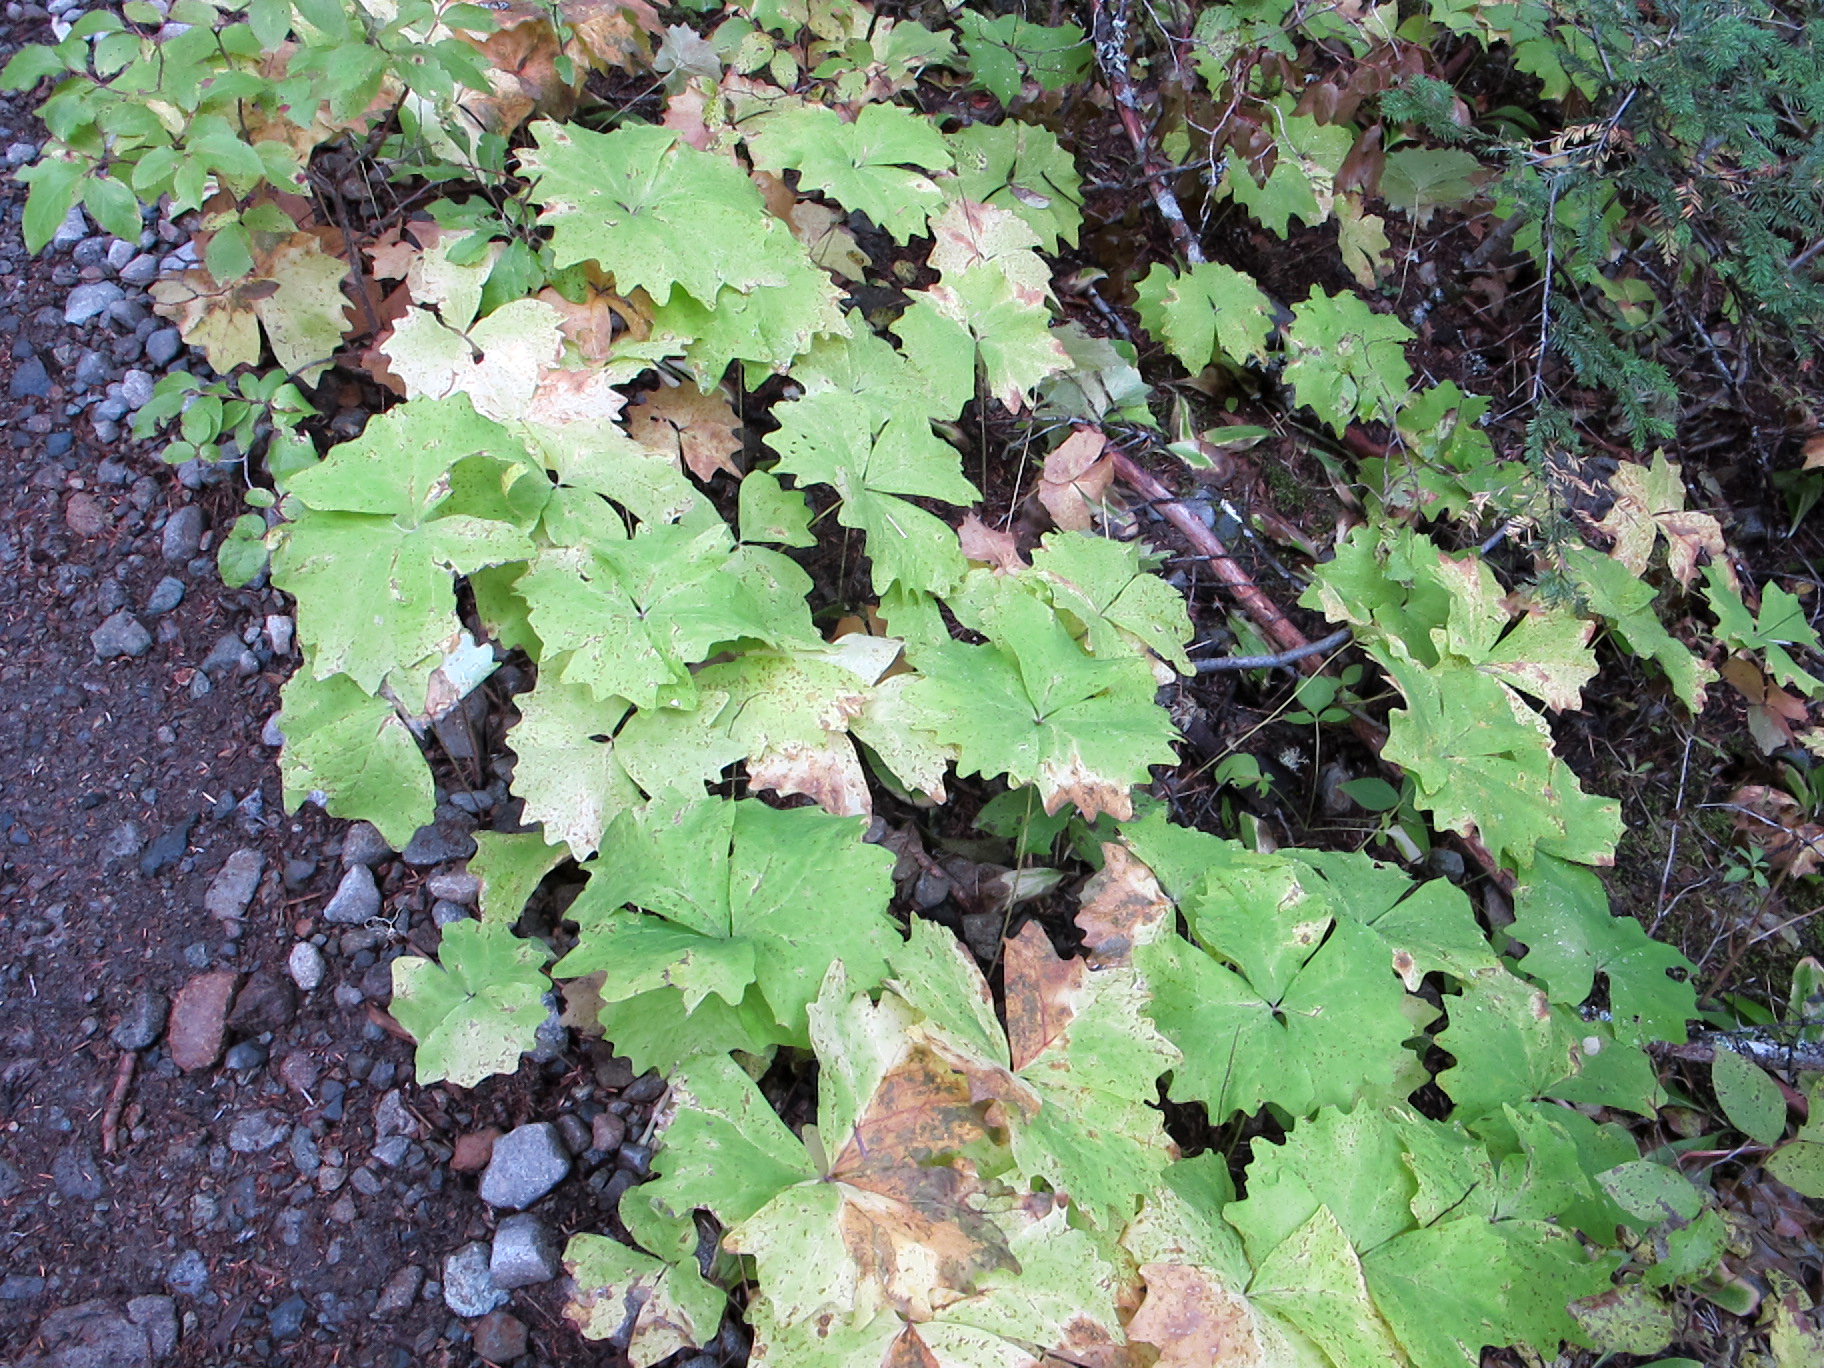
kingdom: Plantae
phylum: Tracheophyta
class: Magnoliopsida
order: Ranunculales
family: Berberidaceae
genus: Achlys
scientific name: Achlys triphylla
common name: Vanilla-leaf
